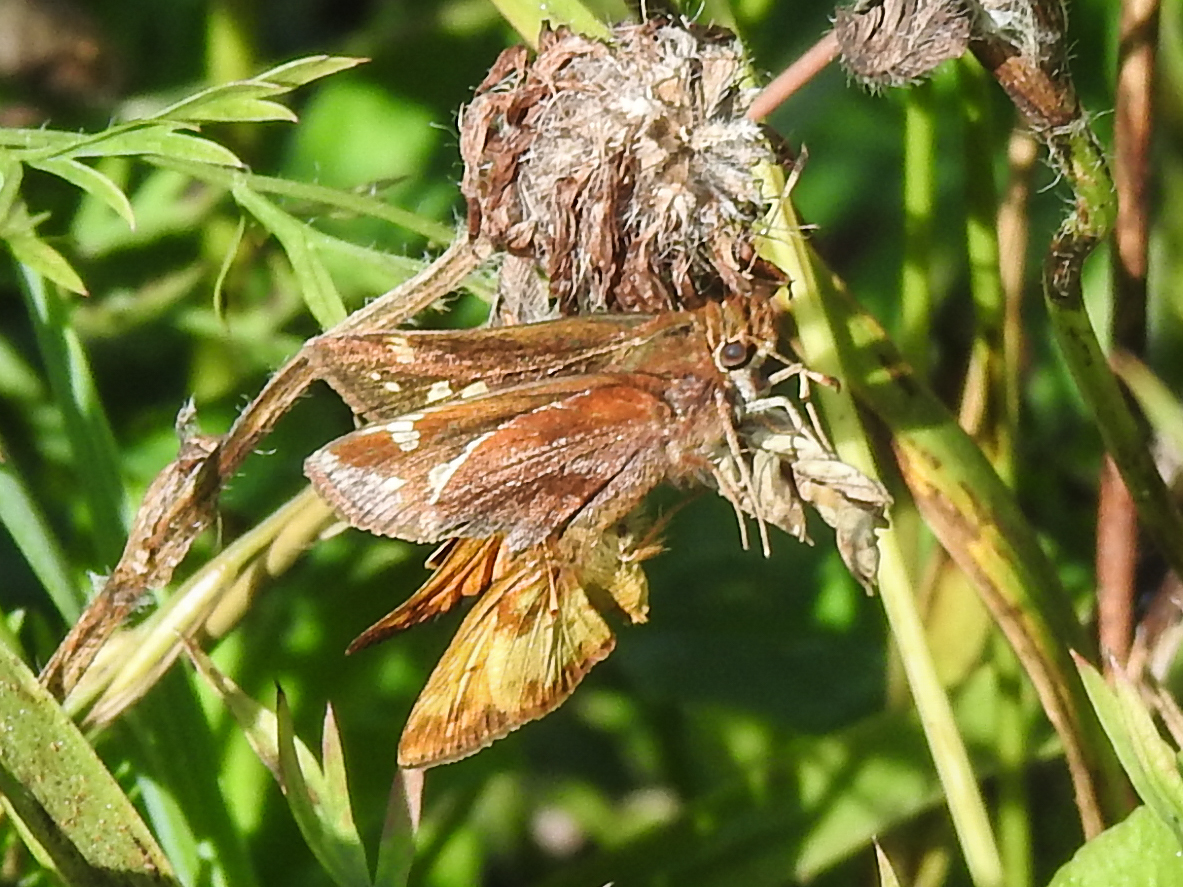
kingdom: Animalia
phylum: Arthropoda
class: Insecta
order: Lepidoptera
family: Hesperiidae
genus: Lon
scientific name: Lon zabulon
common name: Zabulon skipper
